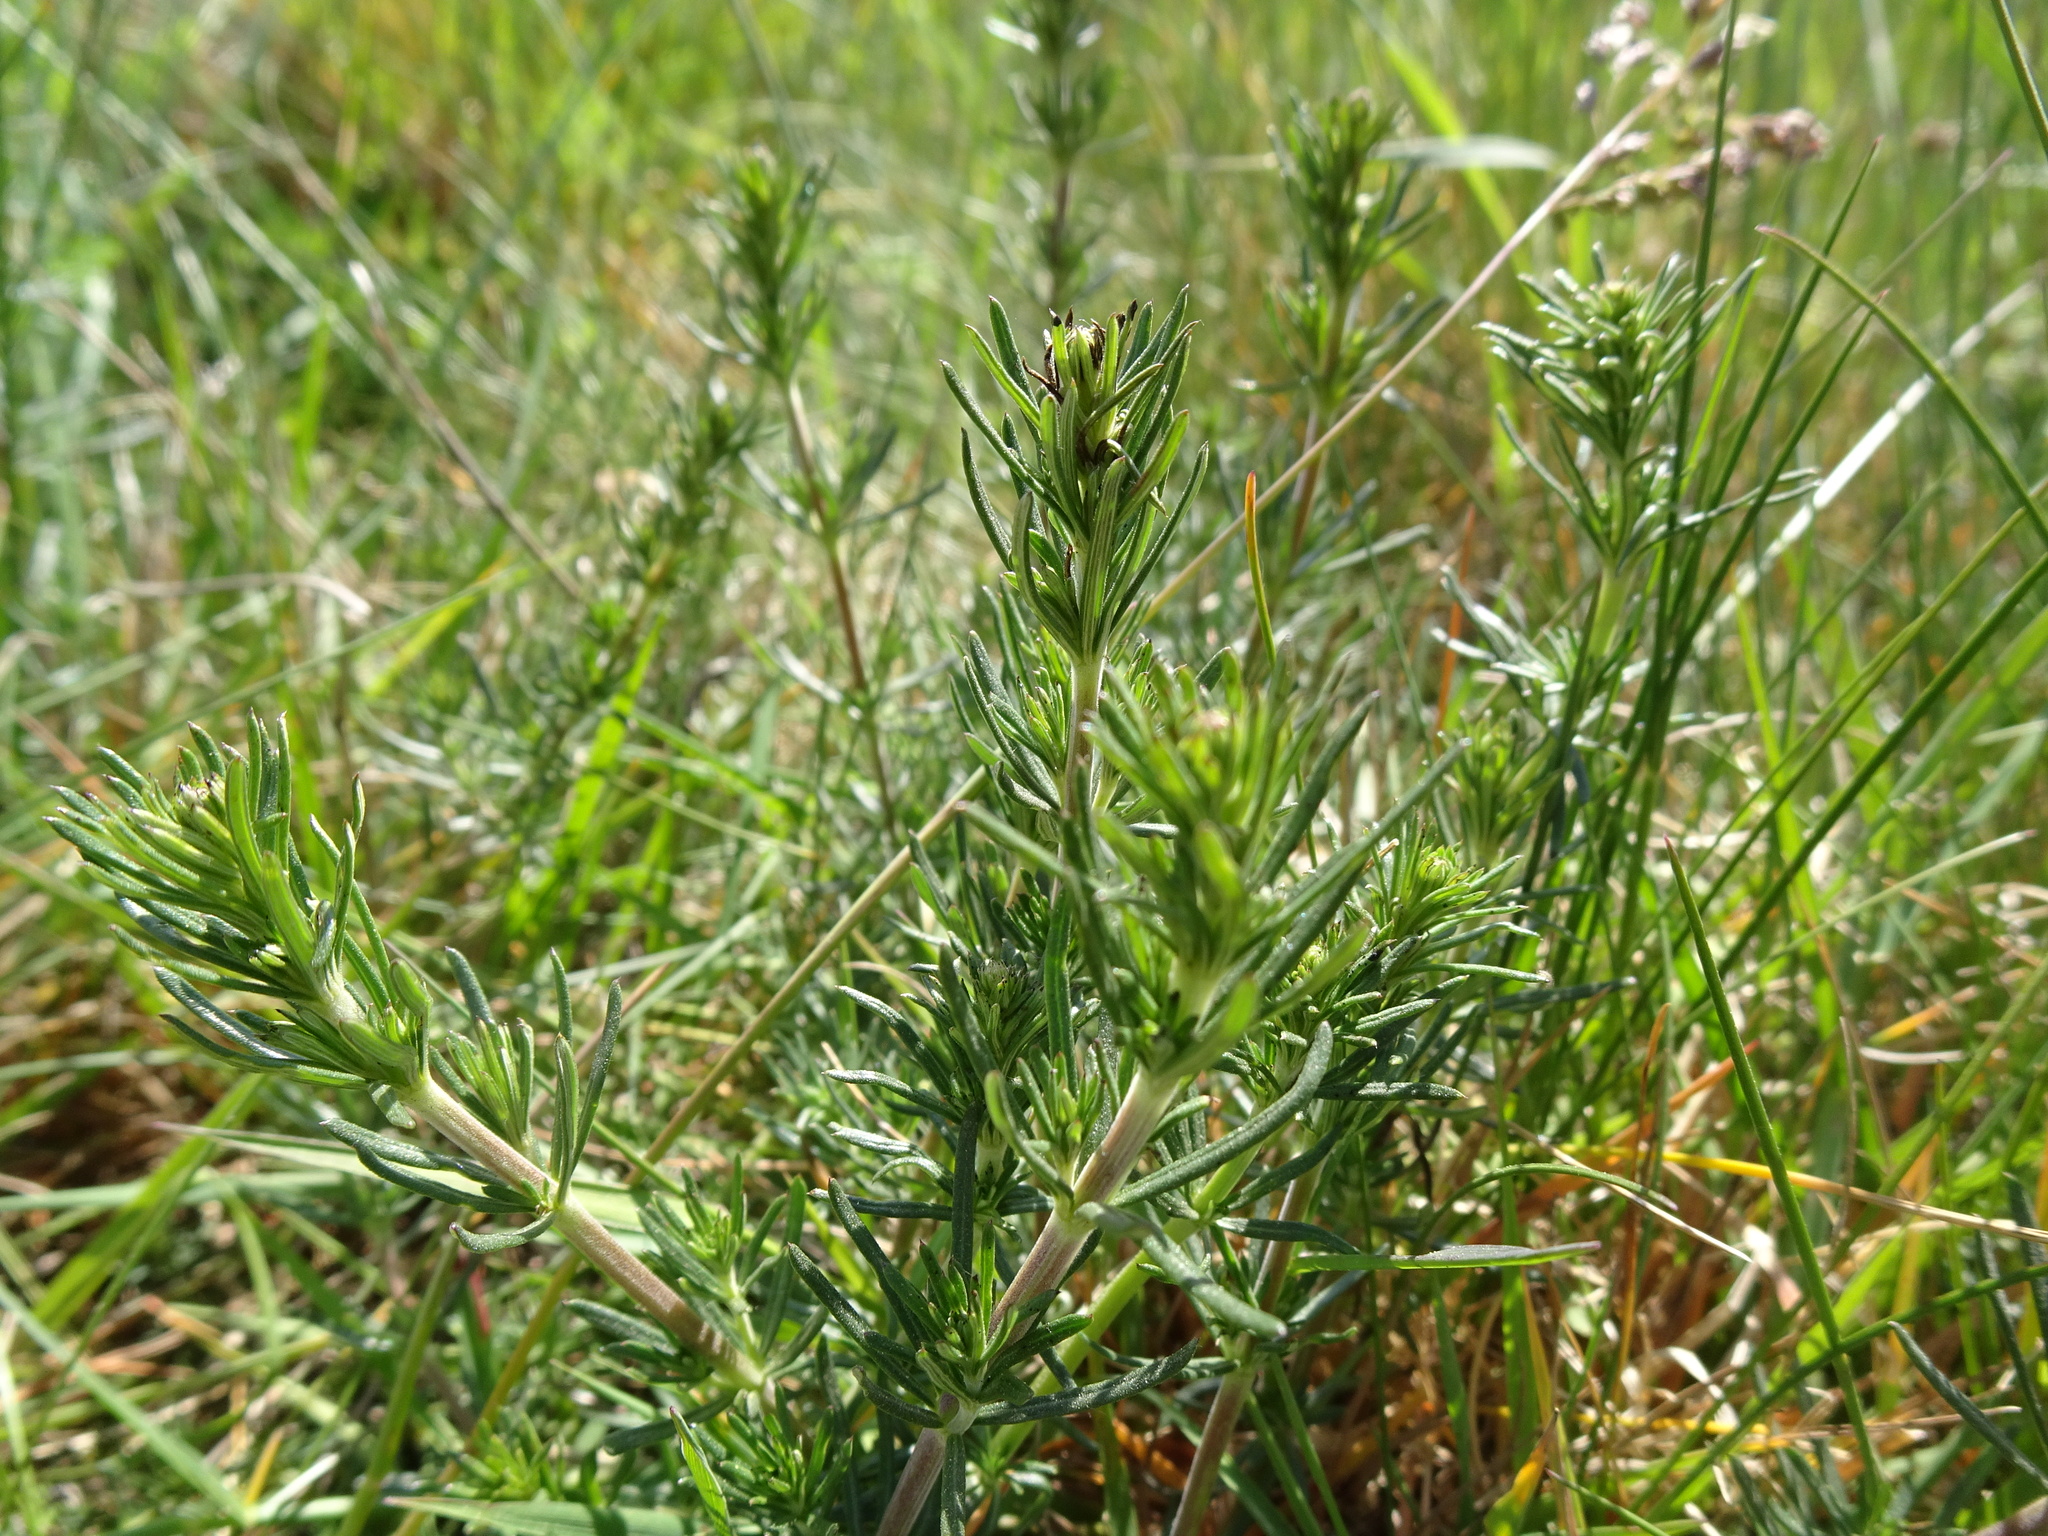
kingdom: Plantae
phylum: Tracheophyta
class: Magnoliopsida
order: Gentianales
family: Rubiaceae
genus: Galium
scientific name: Galium verum
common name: Lady's bedstraw
